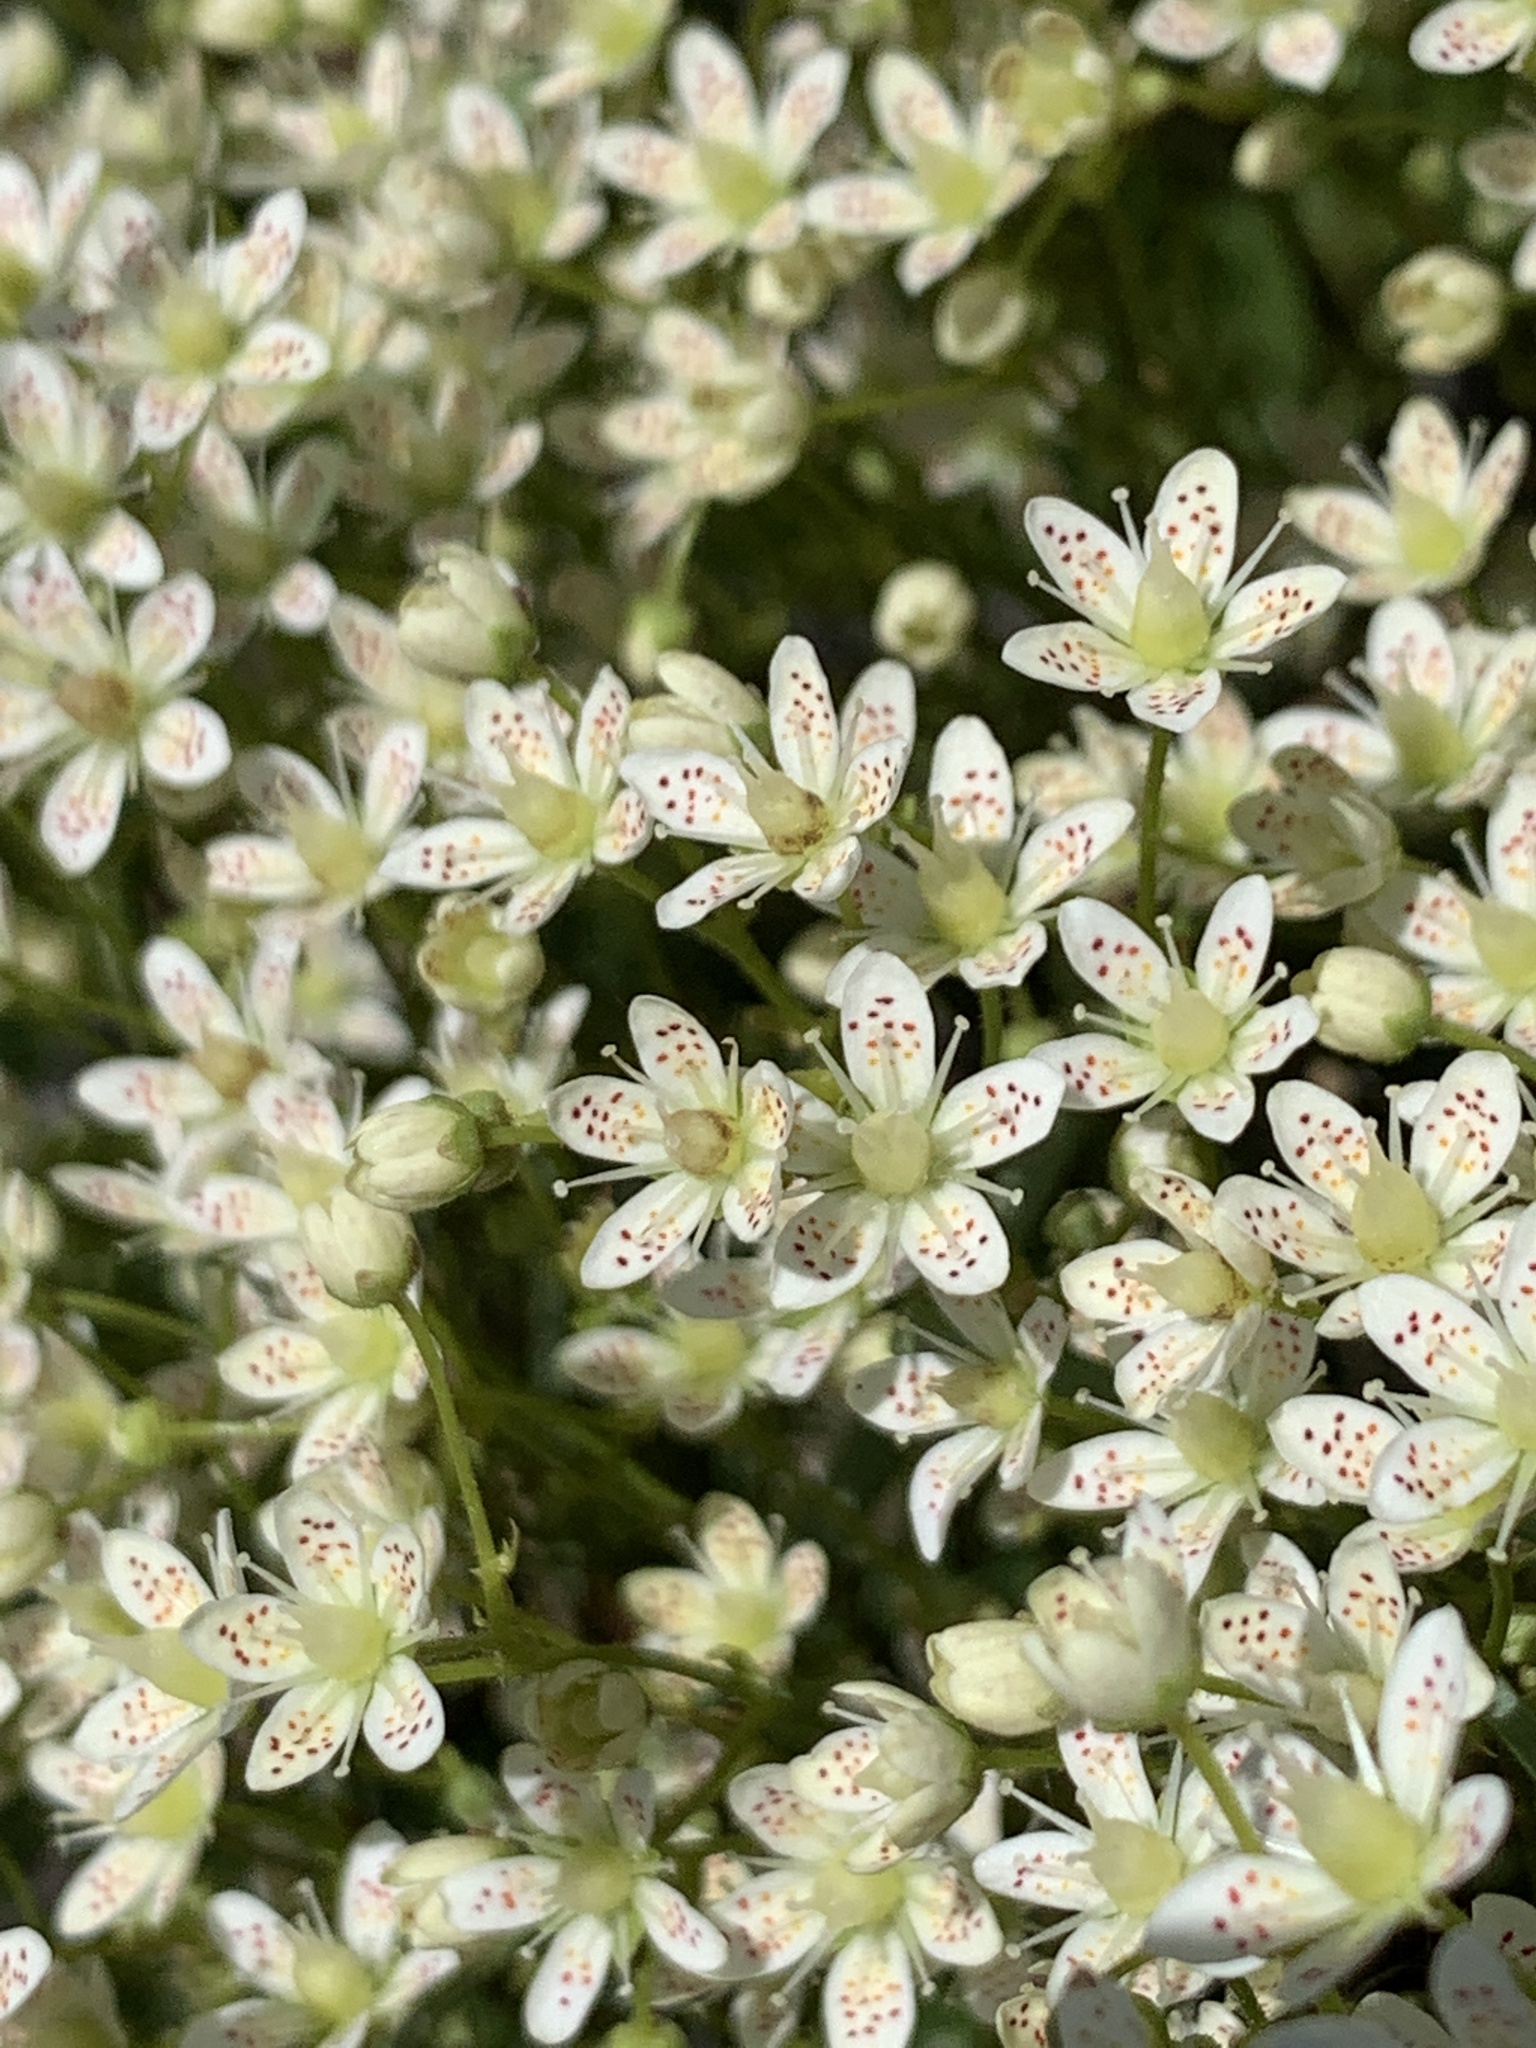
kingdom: Plantae
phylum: Tracheophyta
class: Magnoliopsida
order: Saxifragales
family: Saxifragaceae
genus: Saxifraga
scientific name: Saxifraga bronchialis
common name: Matted saxifrage
